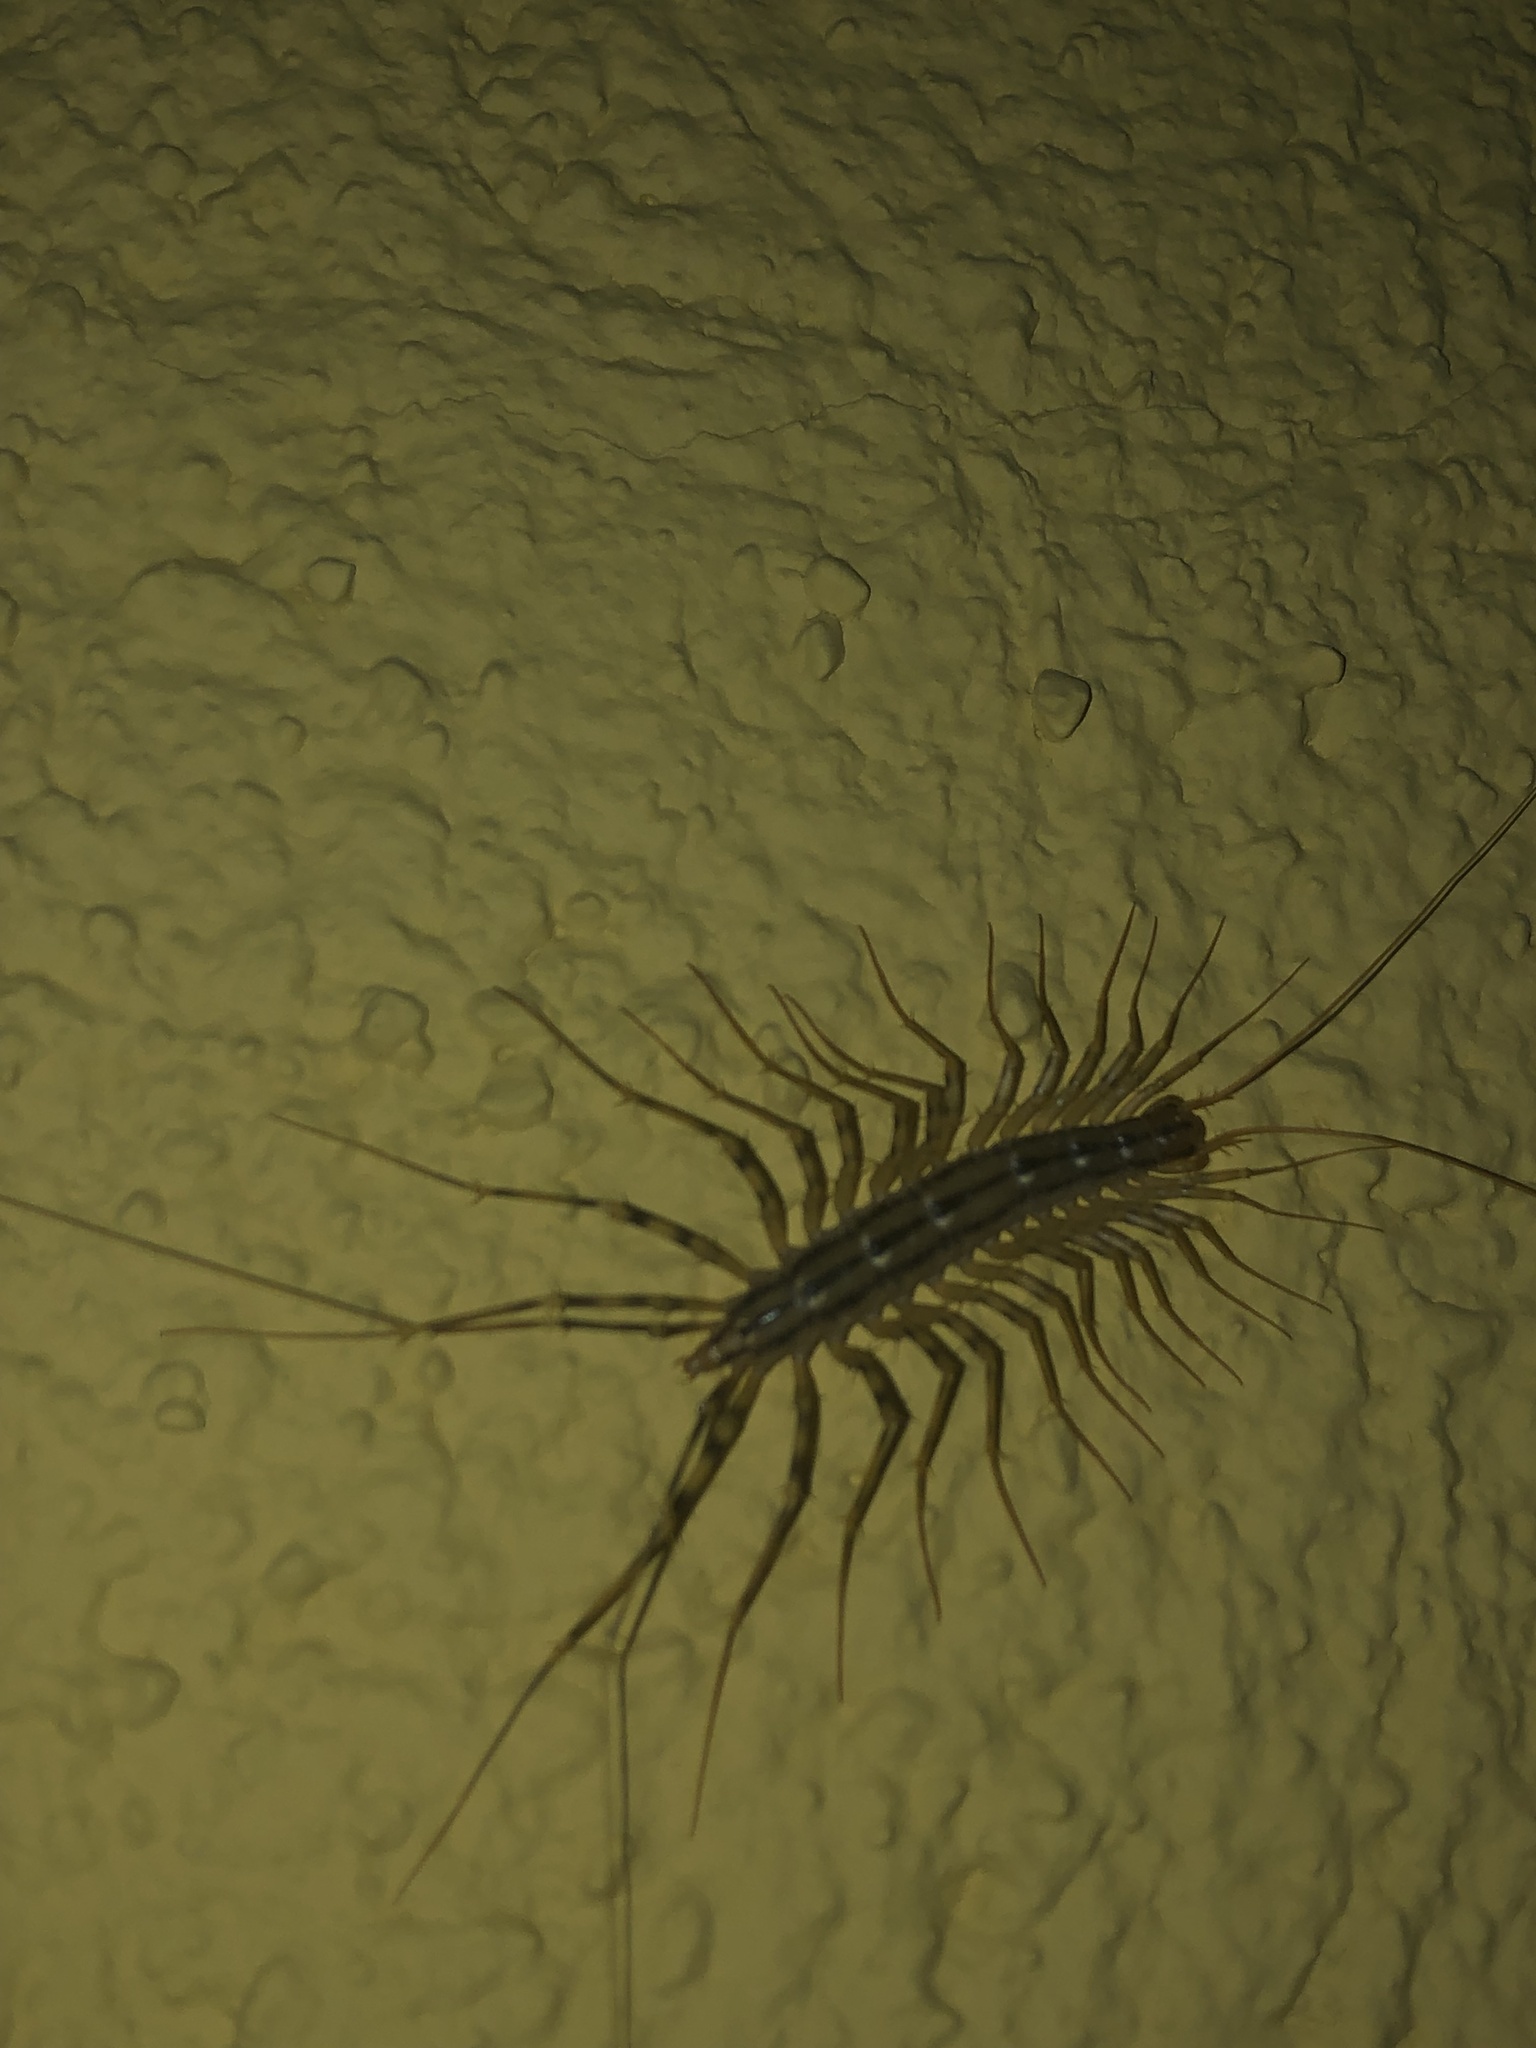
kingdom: Animalia
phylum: Arthropoda
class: Chilopoda
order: Scutigeromorpha
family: Scutigeridae
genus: Scutigera
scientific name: Scutigera coleoptrata
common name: House centipede
